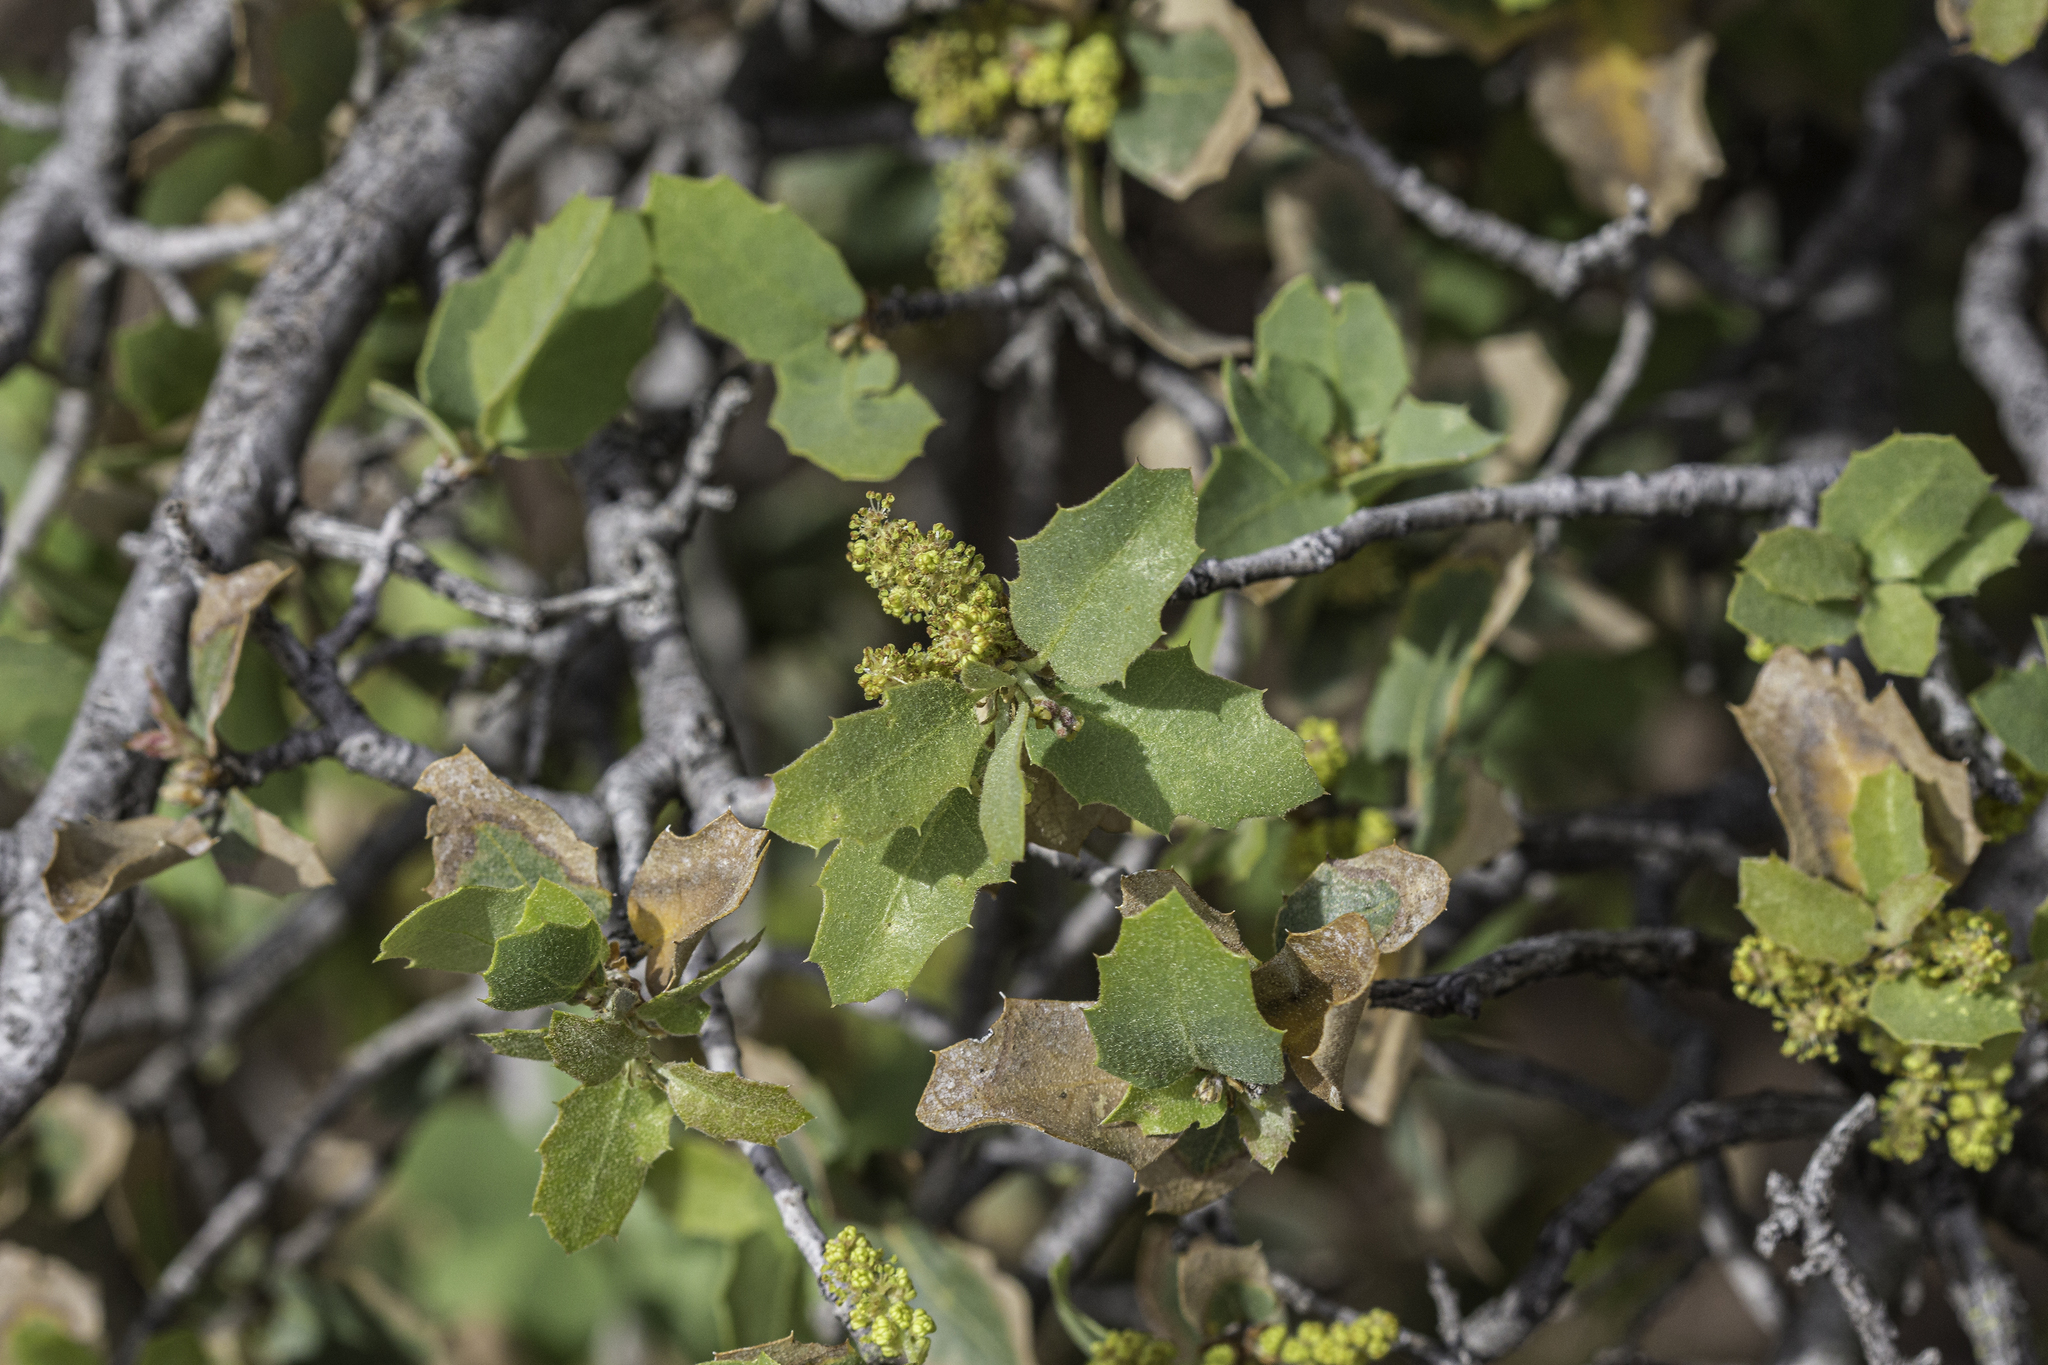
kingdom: Plantae
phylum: Tracheophyta
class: Magnoliopsida
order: Fagales
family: Fagaceae
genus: Quercus
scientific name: Quercus turbinella
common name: Sonoran scrub oak
